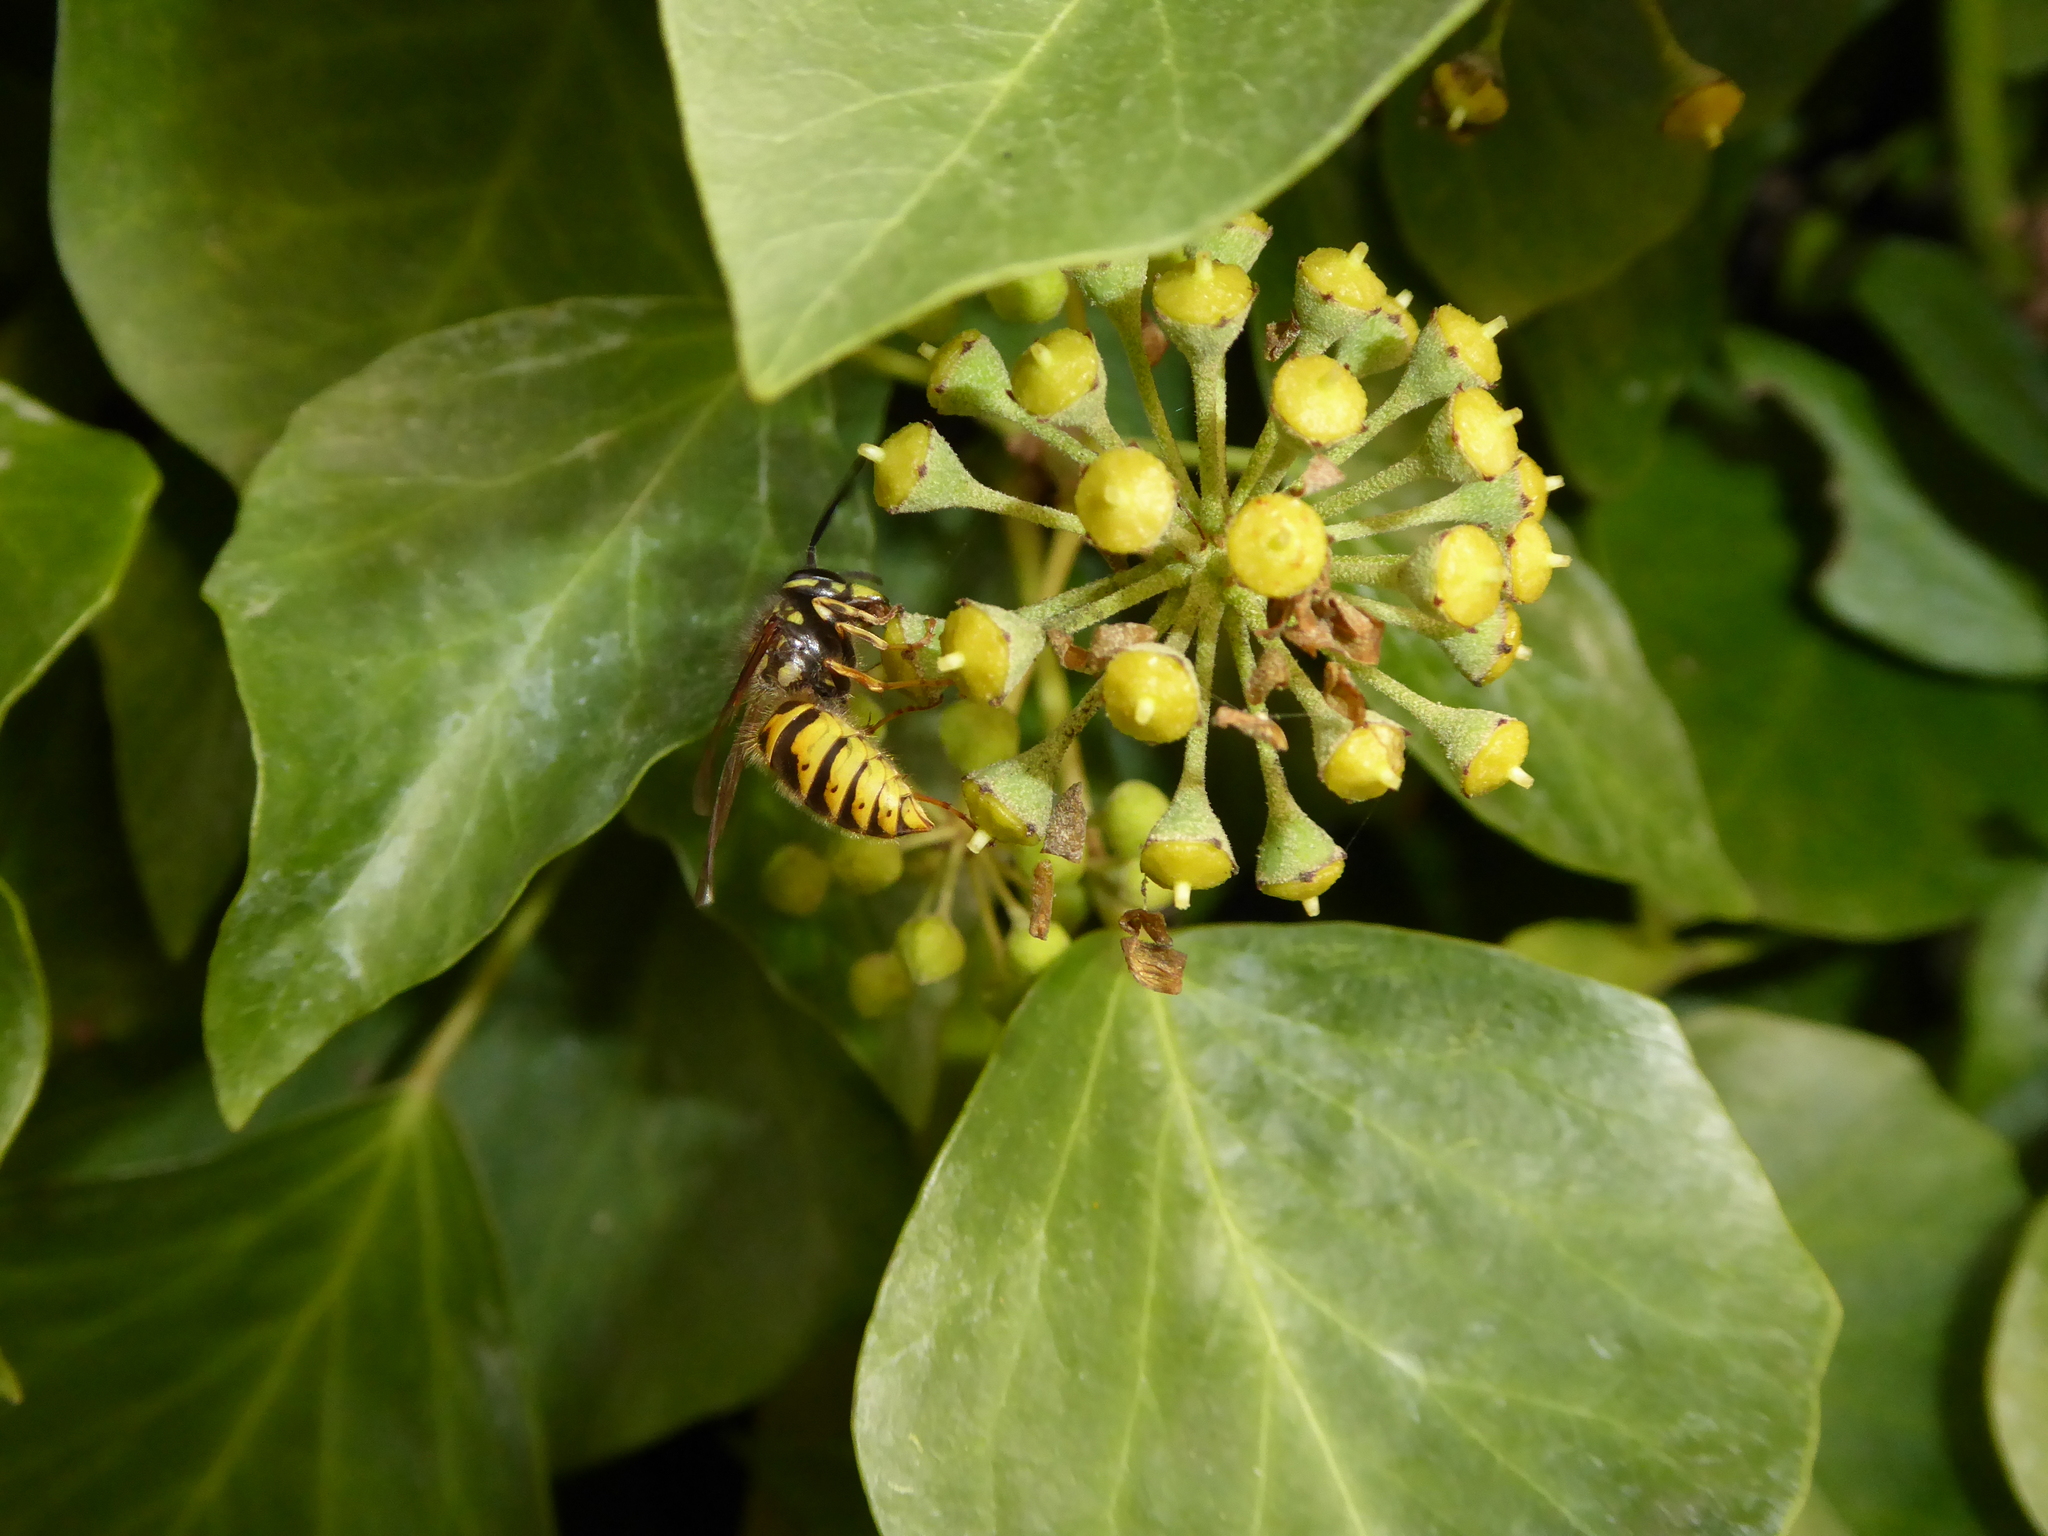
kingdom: Animalia
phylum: Arthropoda
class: Insecta
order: Hymenoptera
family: Vespidae
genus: Vespula
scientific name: Vespula vulgaris
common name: Common wasp
